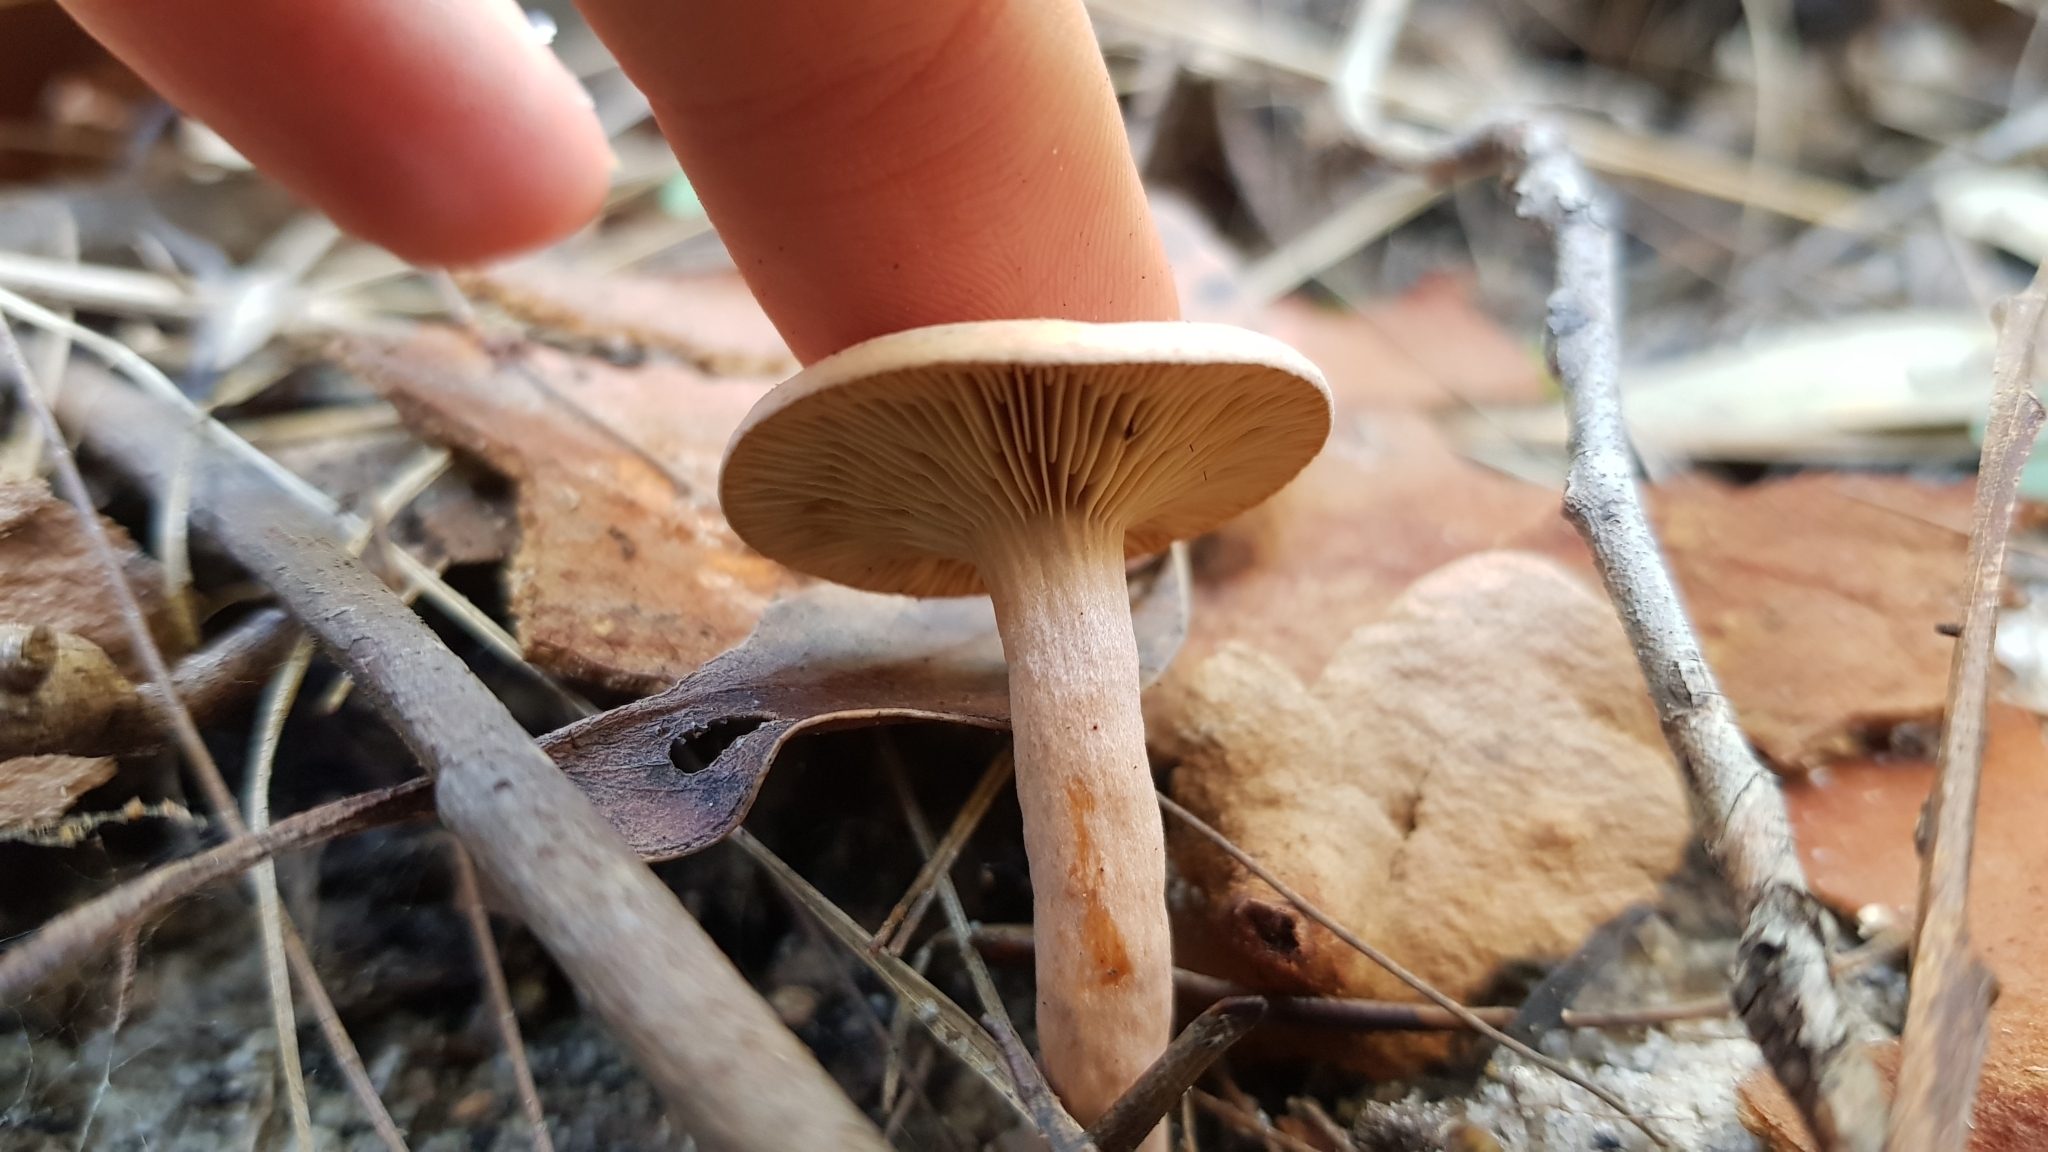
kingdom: Fungi
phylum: Basidiomycota
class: Agaricomycetes
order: Russulales
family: Russulaceae
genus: Lactarius
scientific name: Lactarius eucalypti
